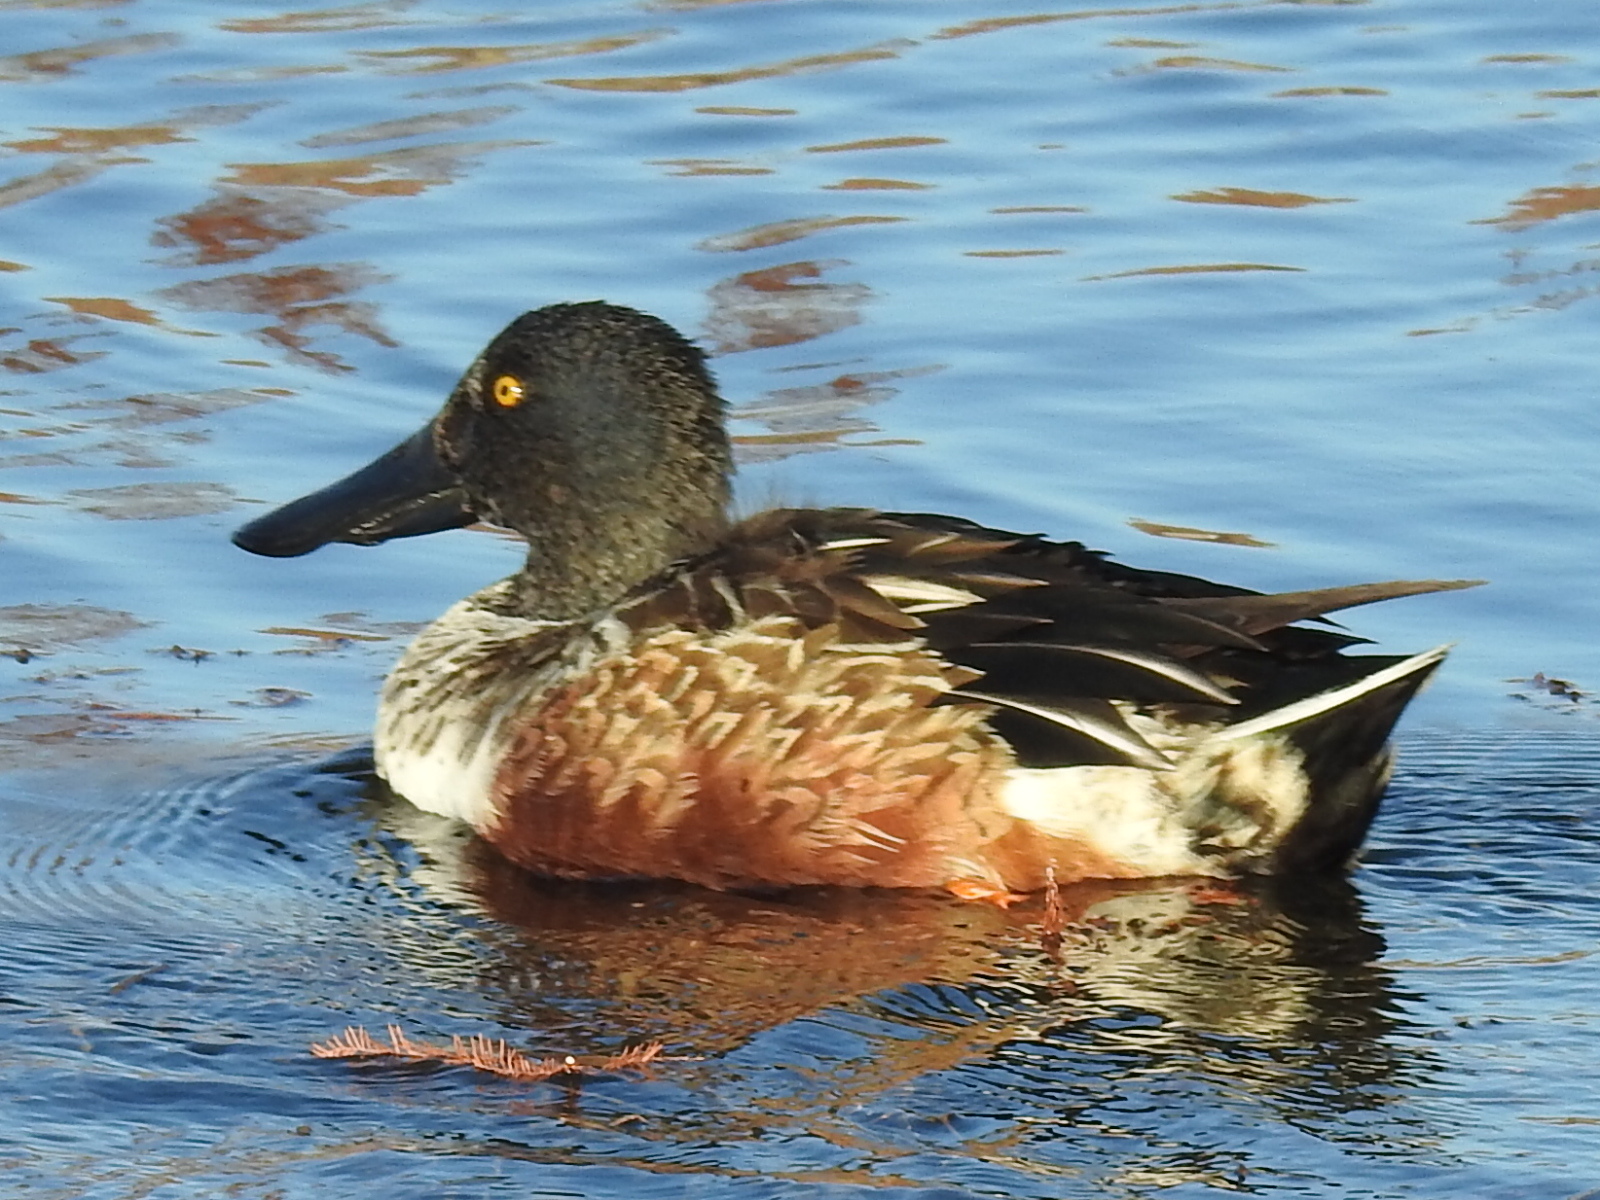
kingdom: Animalia
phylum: Chordata
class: Aves
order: Anseriformes
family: Anatidae
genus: Spatula
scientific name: Spatula clypeata
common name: Northern shoveler
